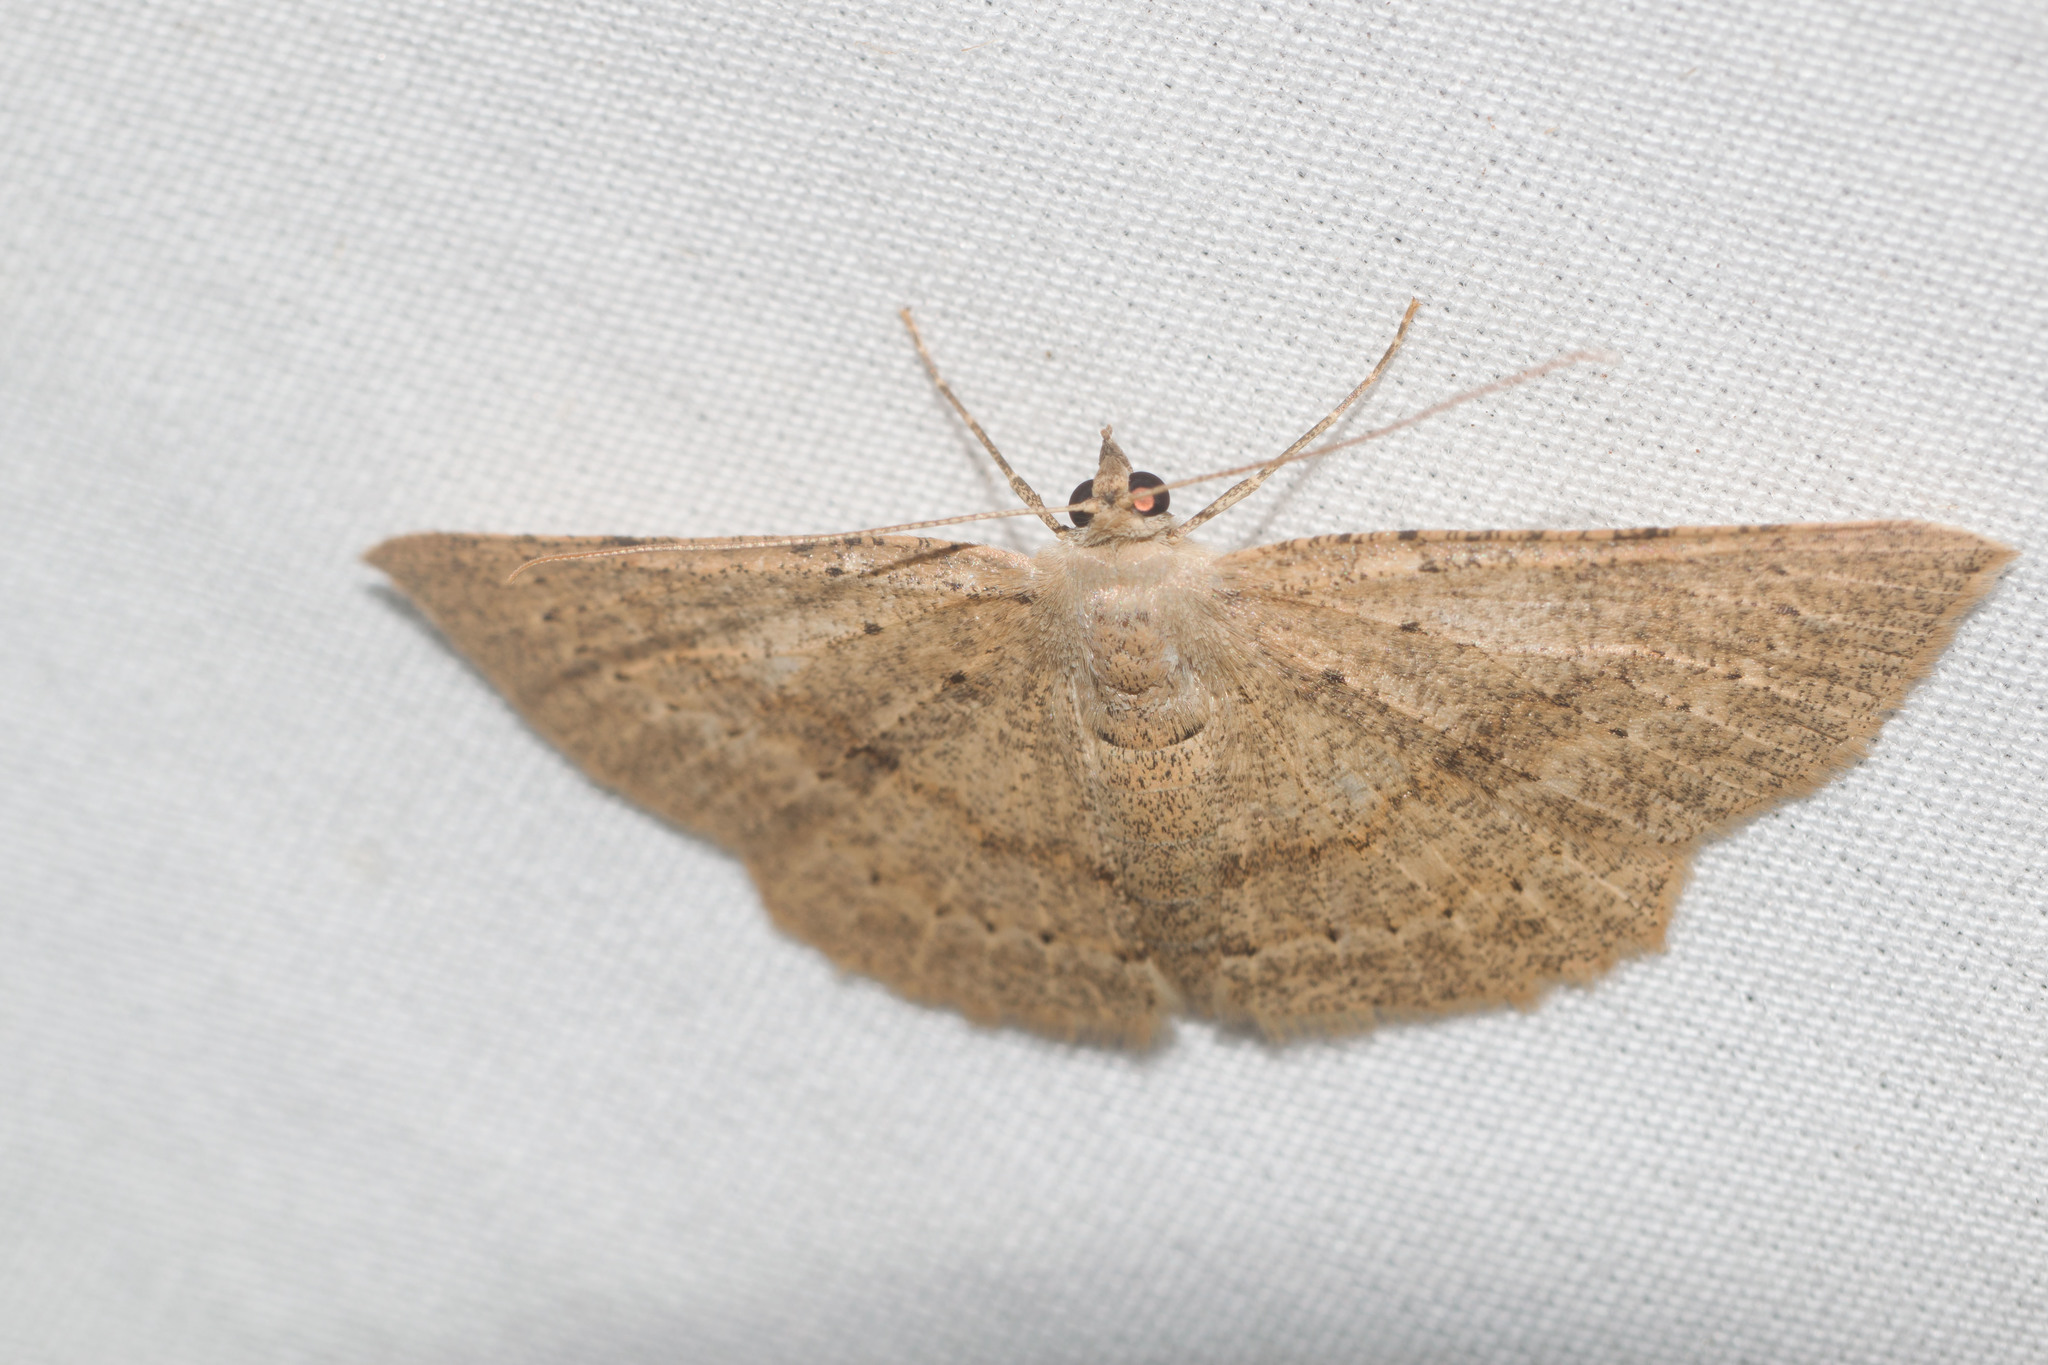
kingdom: Animalia
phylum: Arthropoda
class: Insecta
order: Lepidoptera
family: Geometridae
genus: Scotorythra
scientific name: Scotorythra corticea
